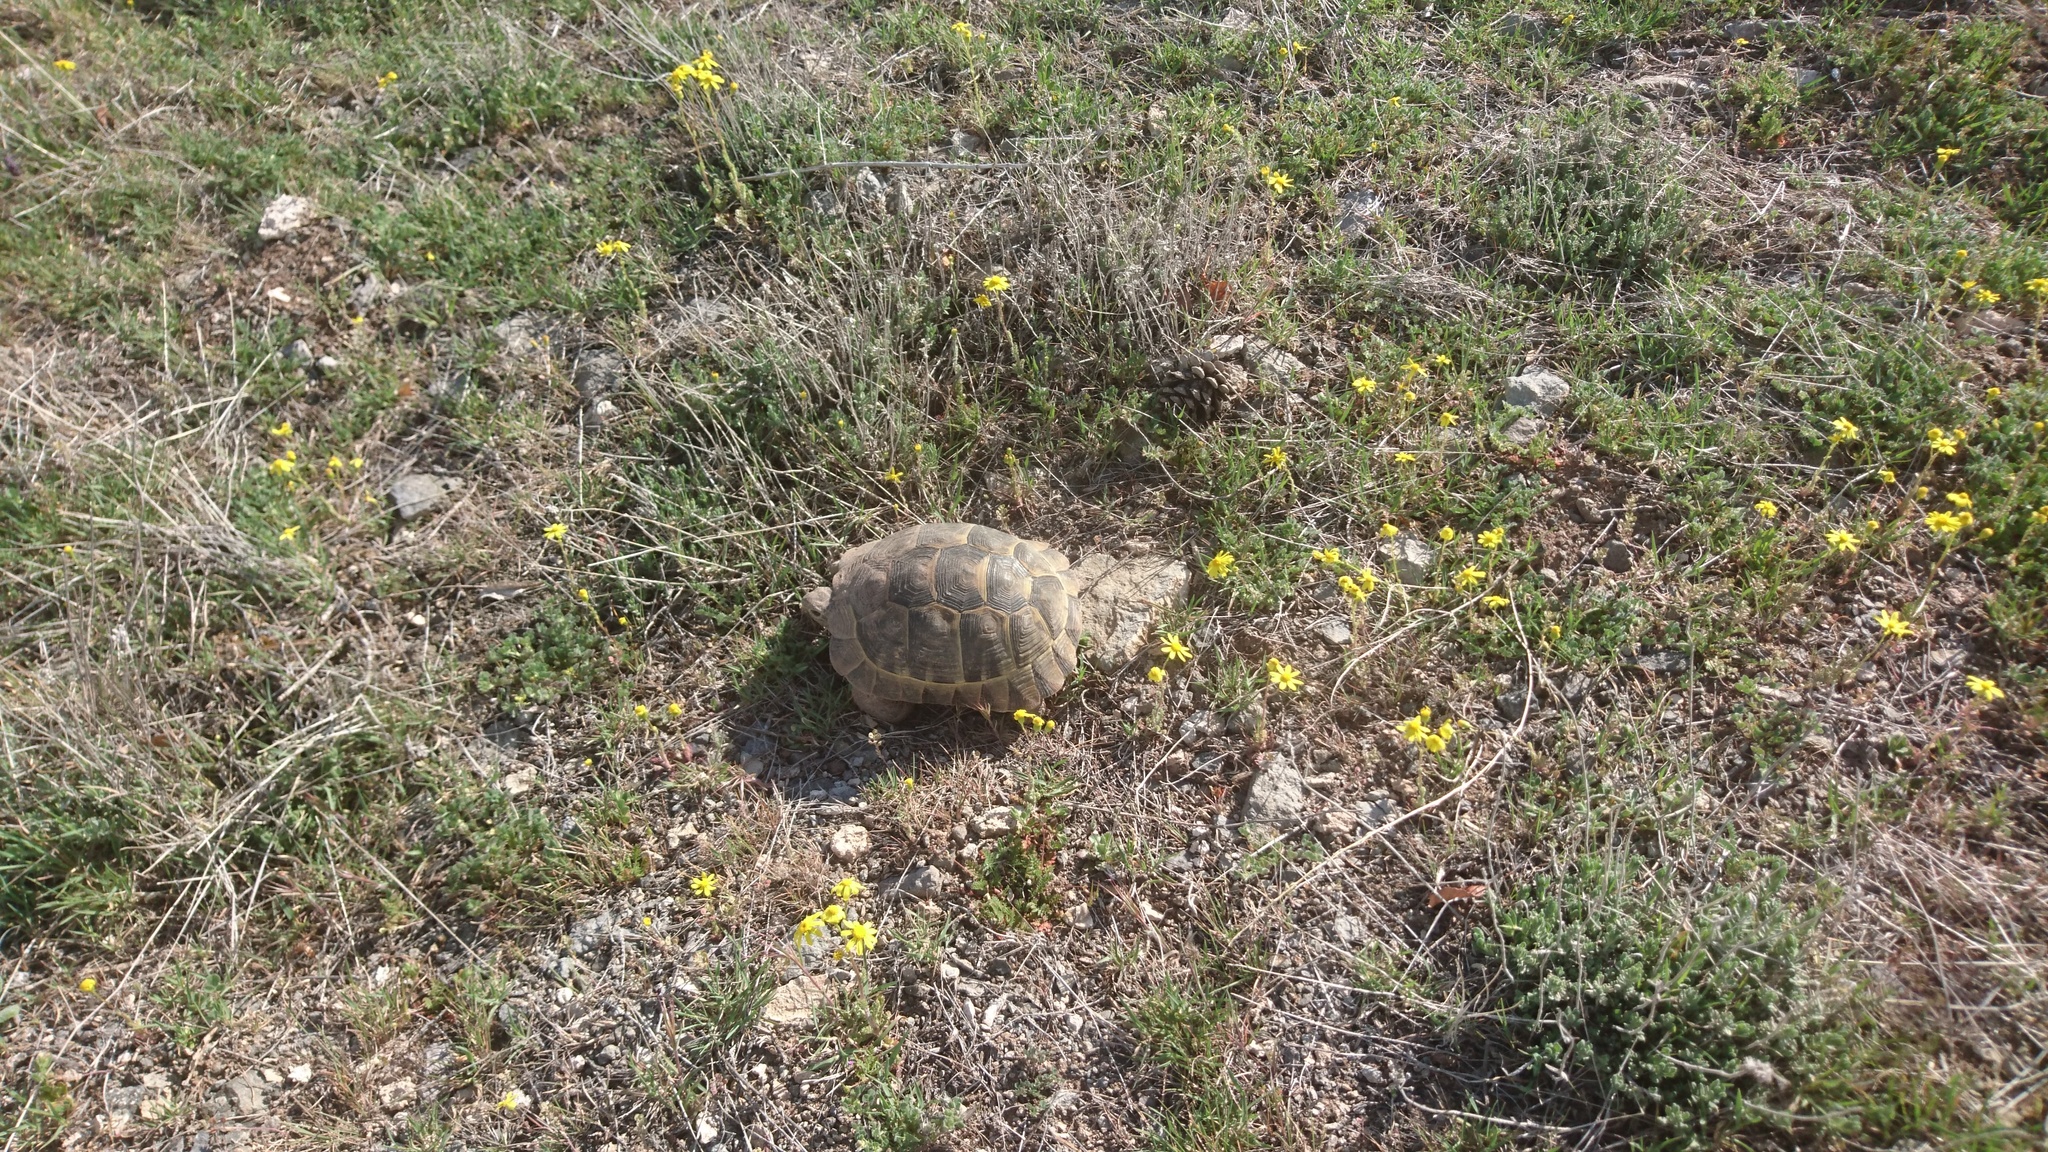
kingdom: Animalia
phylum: Chordata
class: Testudines
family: Testudinidae
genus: Testudo
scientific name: Testudo graeca
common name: Common tortoise
